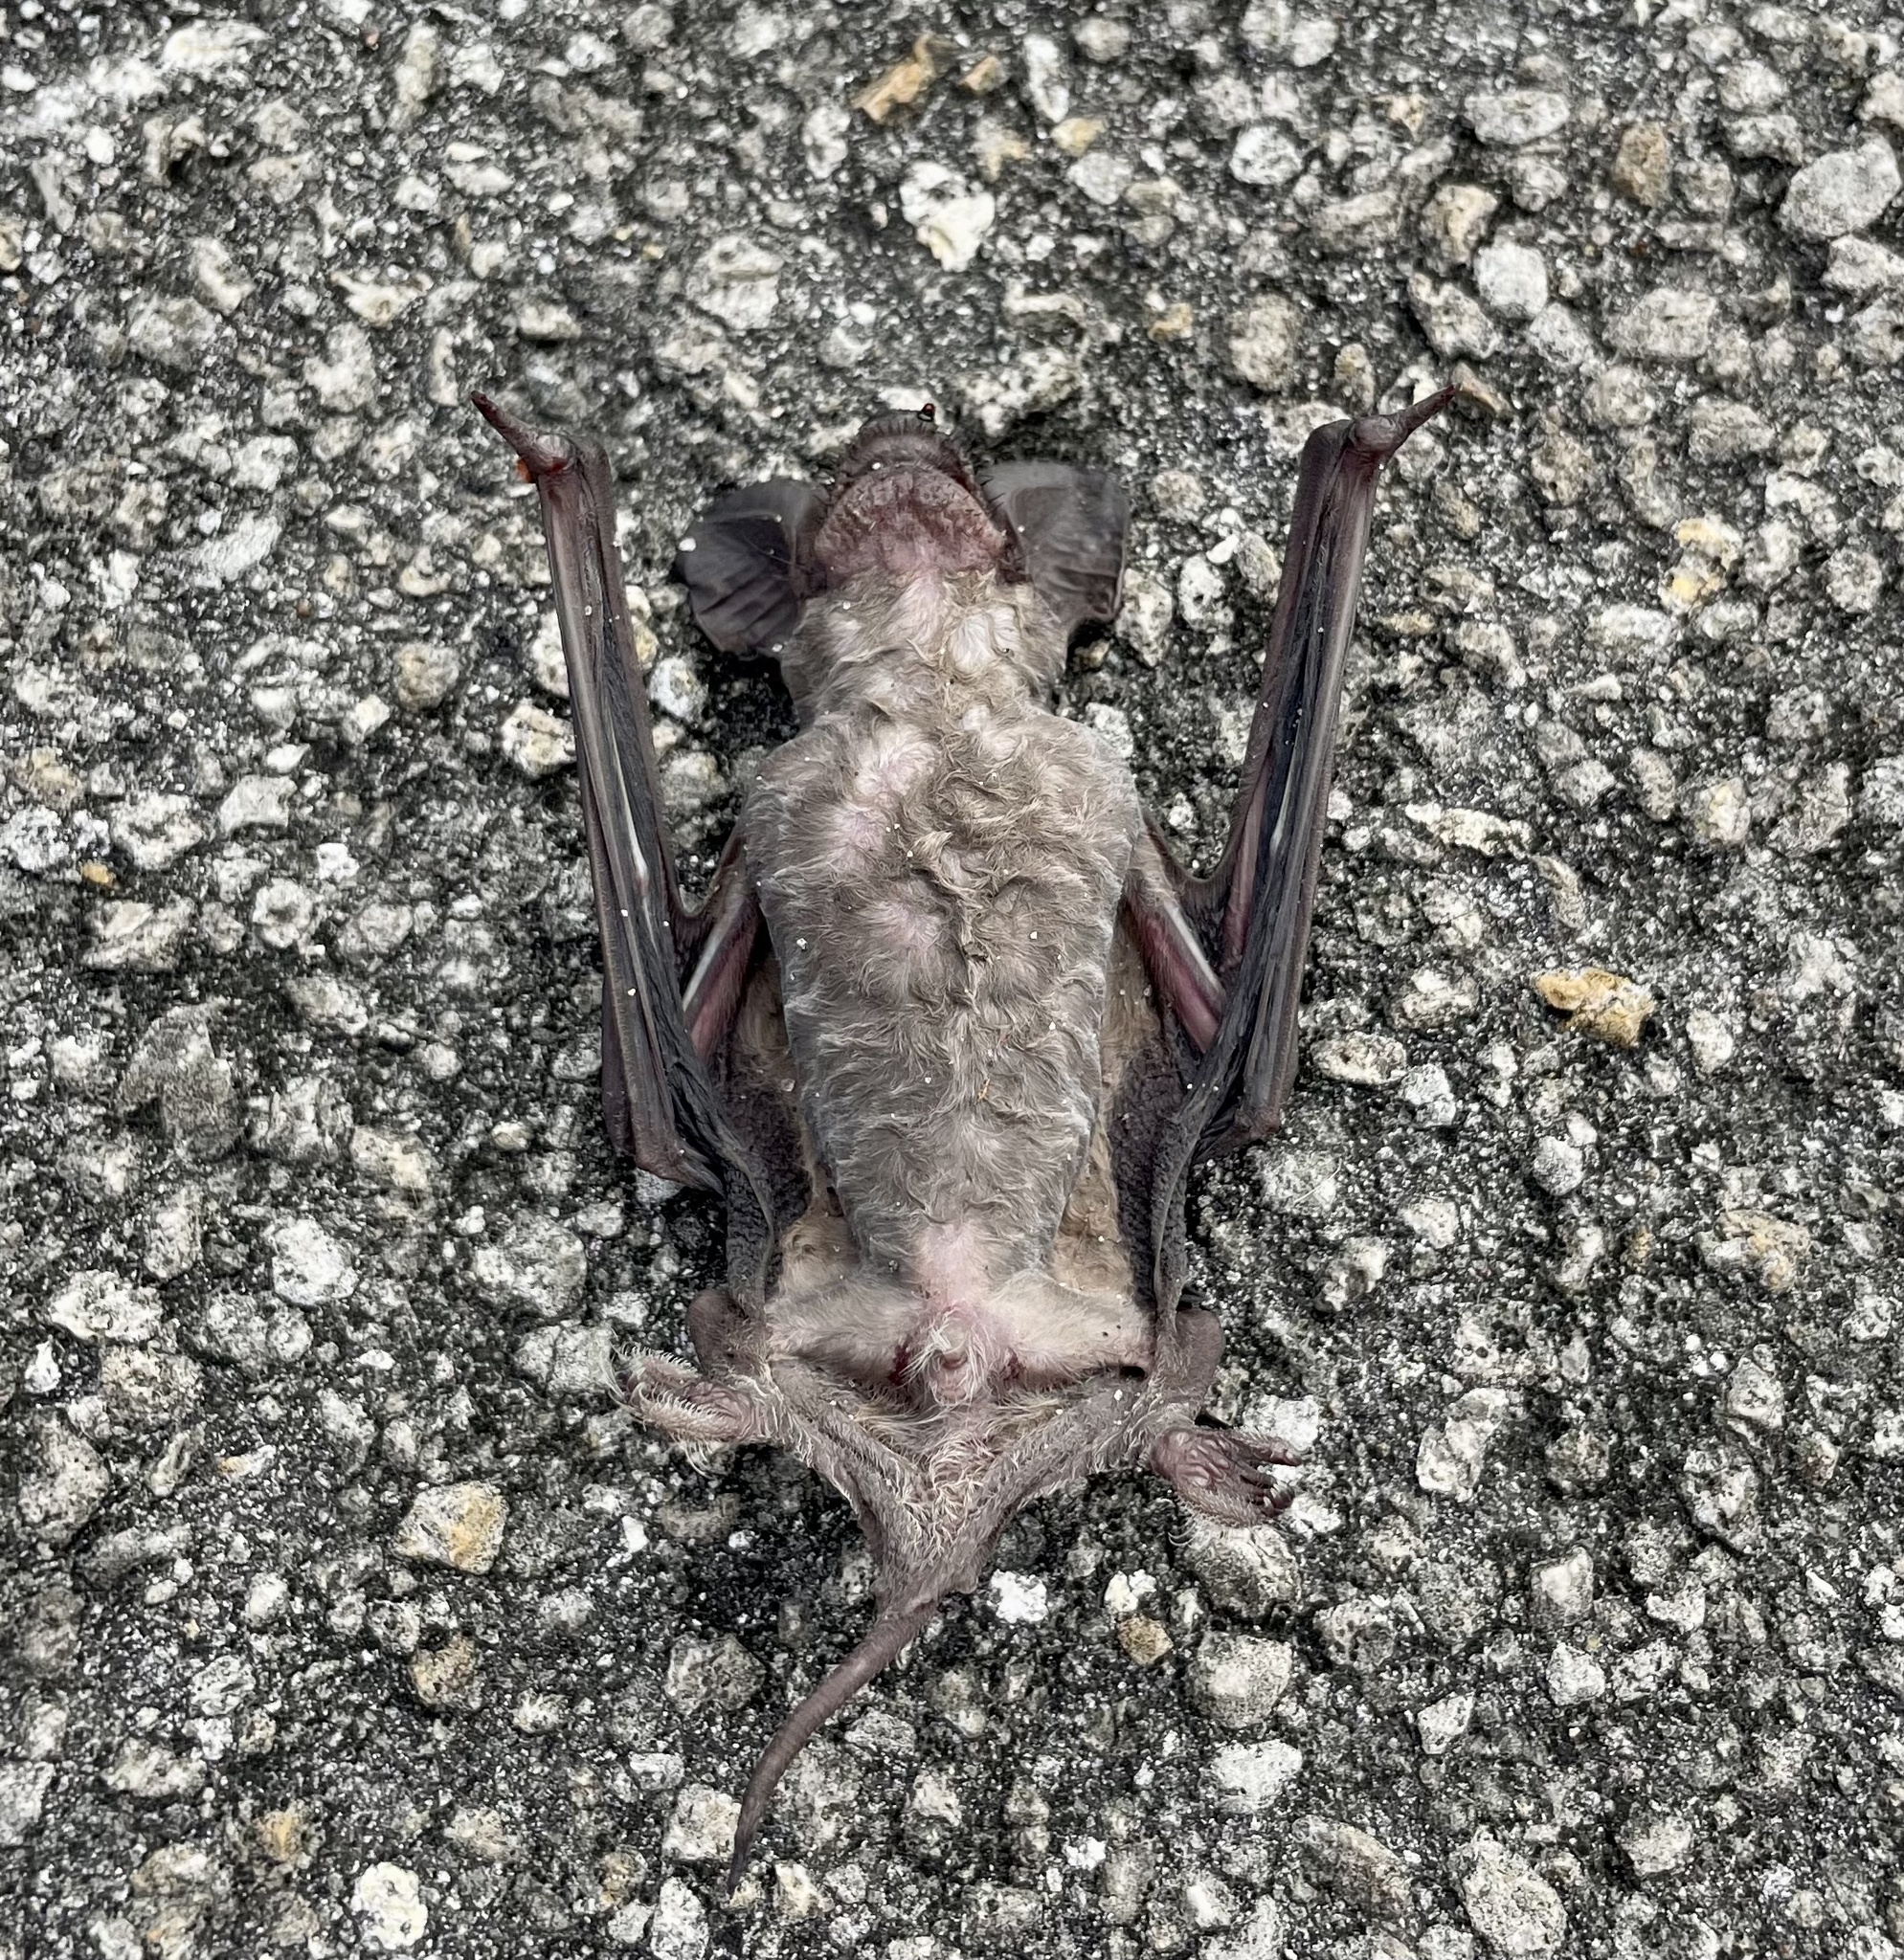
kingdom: Animalia
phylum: Chordata
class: Mammalia
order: Chiroptera
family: Molossidae
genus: Tadarida
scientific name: Tadarida brasiliensis
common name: Mexican free-tailed bat
